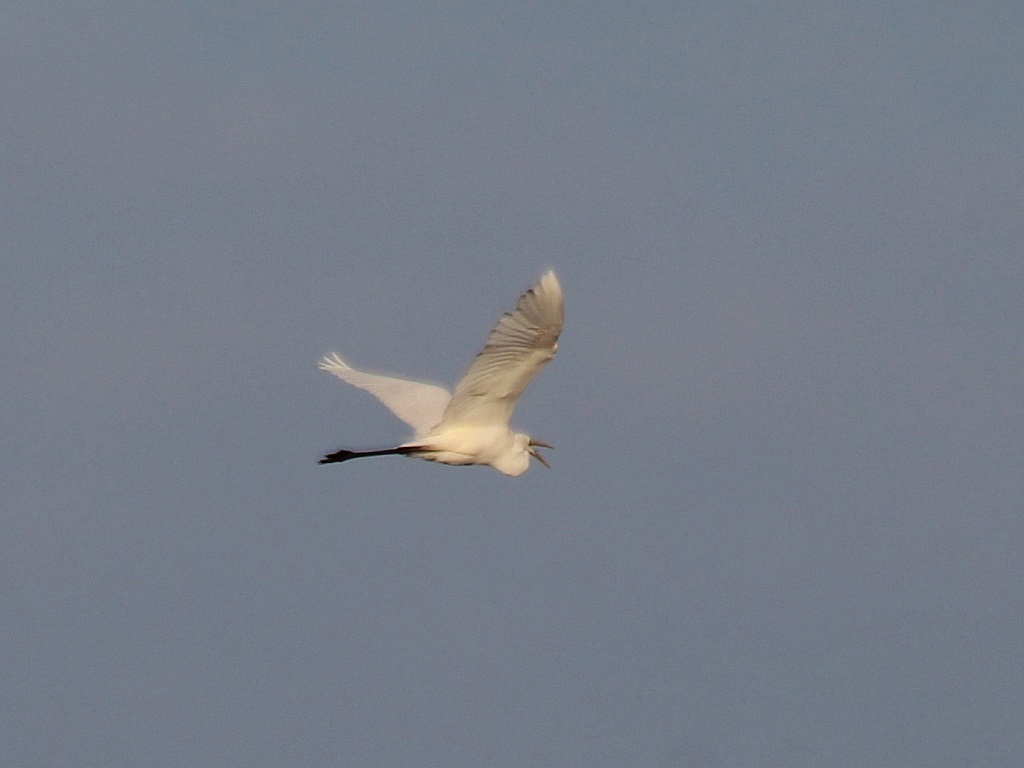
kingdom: Animalia
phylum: Chordata
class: Aves
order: Pelecaniformes
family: Ardeidae
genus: Ardea
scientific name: Ardea alba
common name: Great egret
